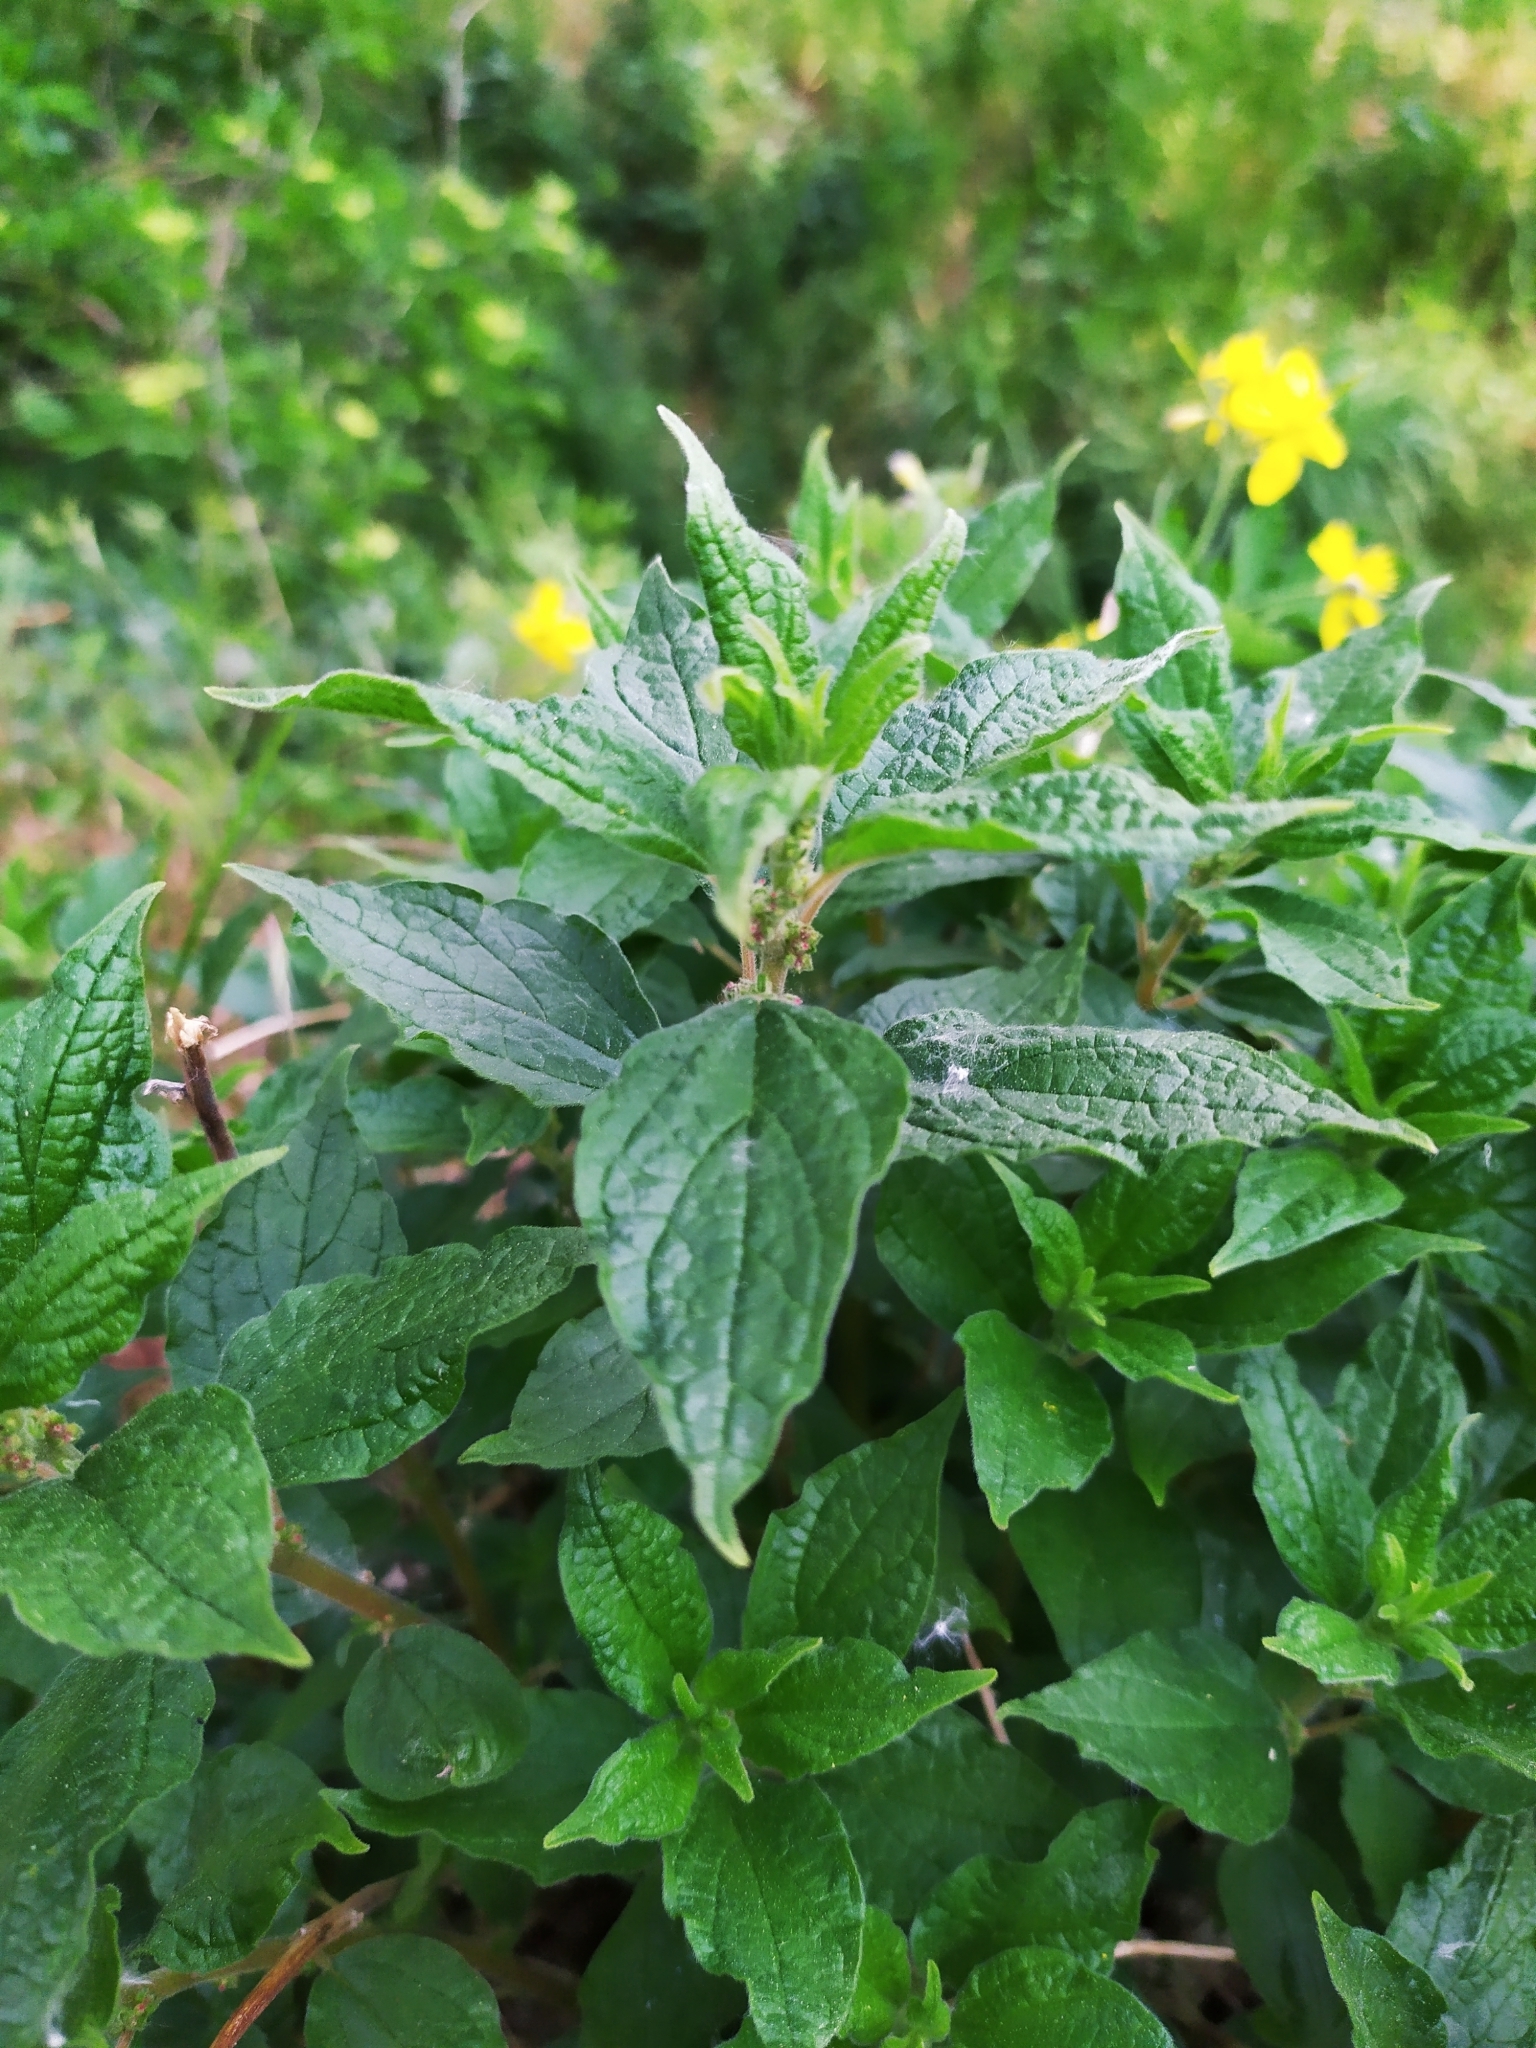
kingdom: Plantae
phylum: Tracheophyta
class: Magnoliopsida
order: Rosales
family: Urticaceae
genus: Parietaria
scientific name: Parietaria officinalis
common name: Eastern pellitory-of-the-wall
